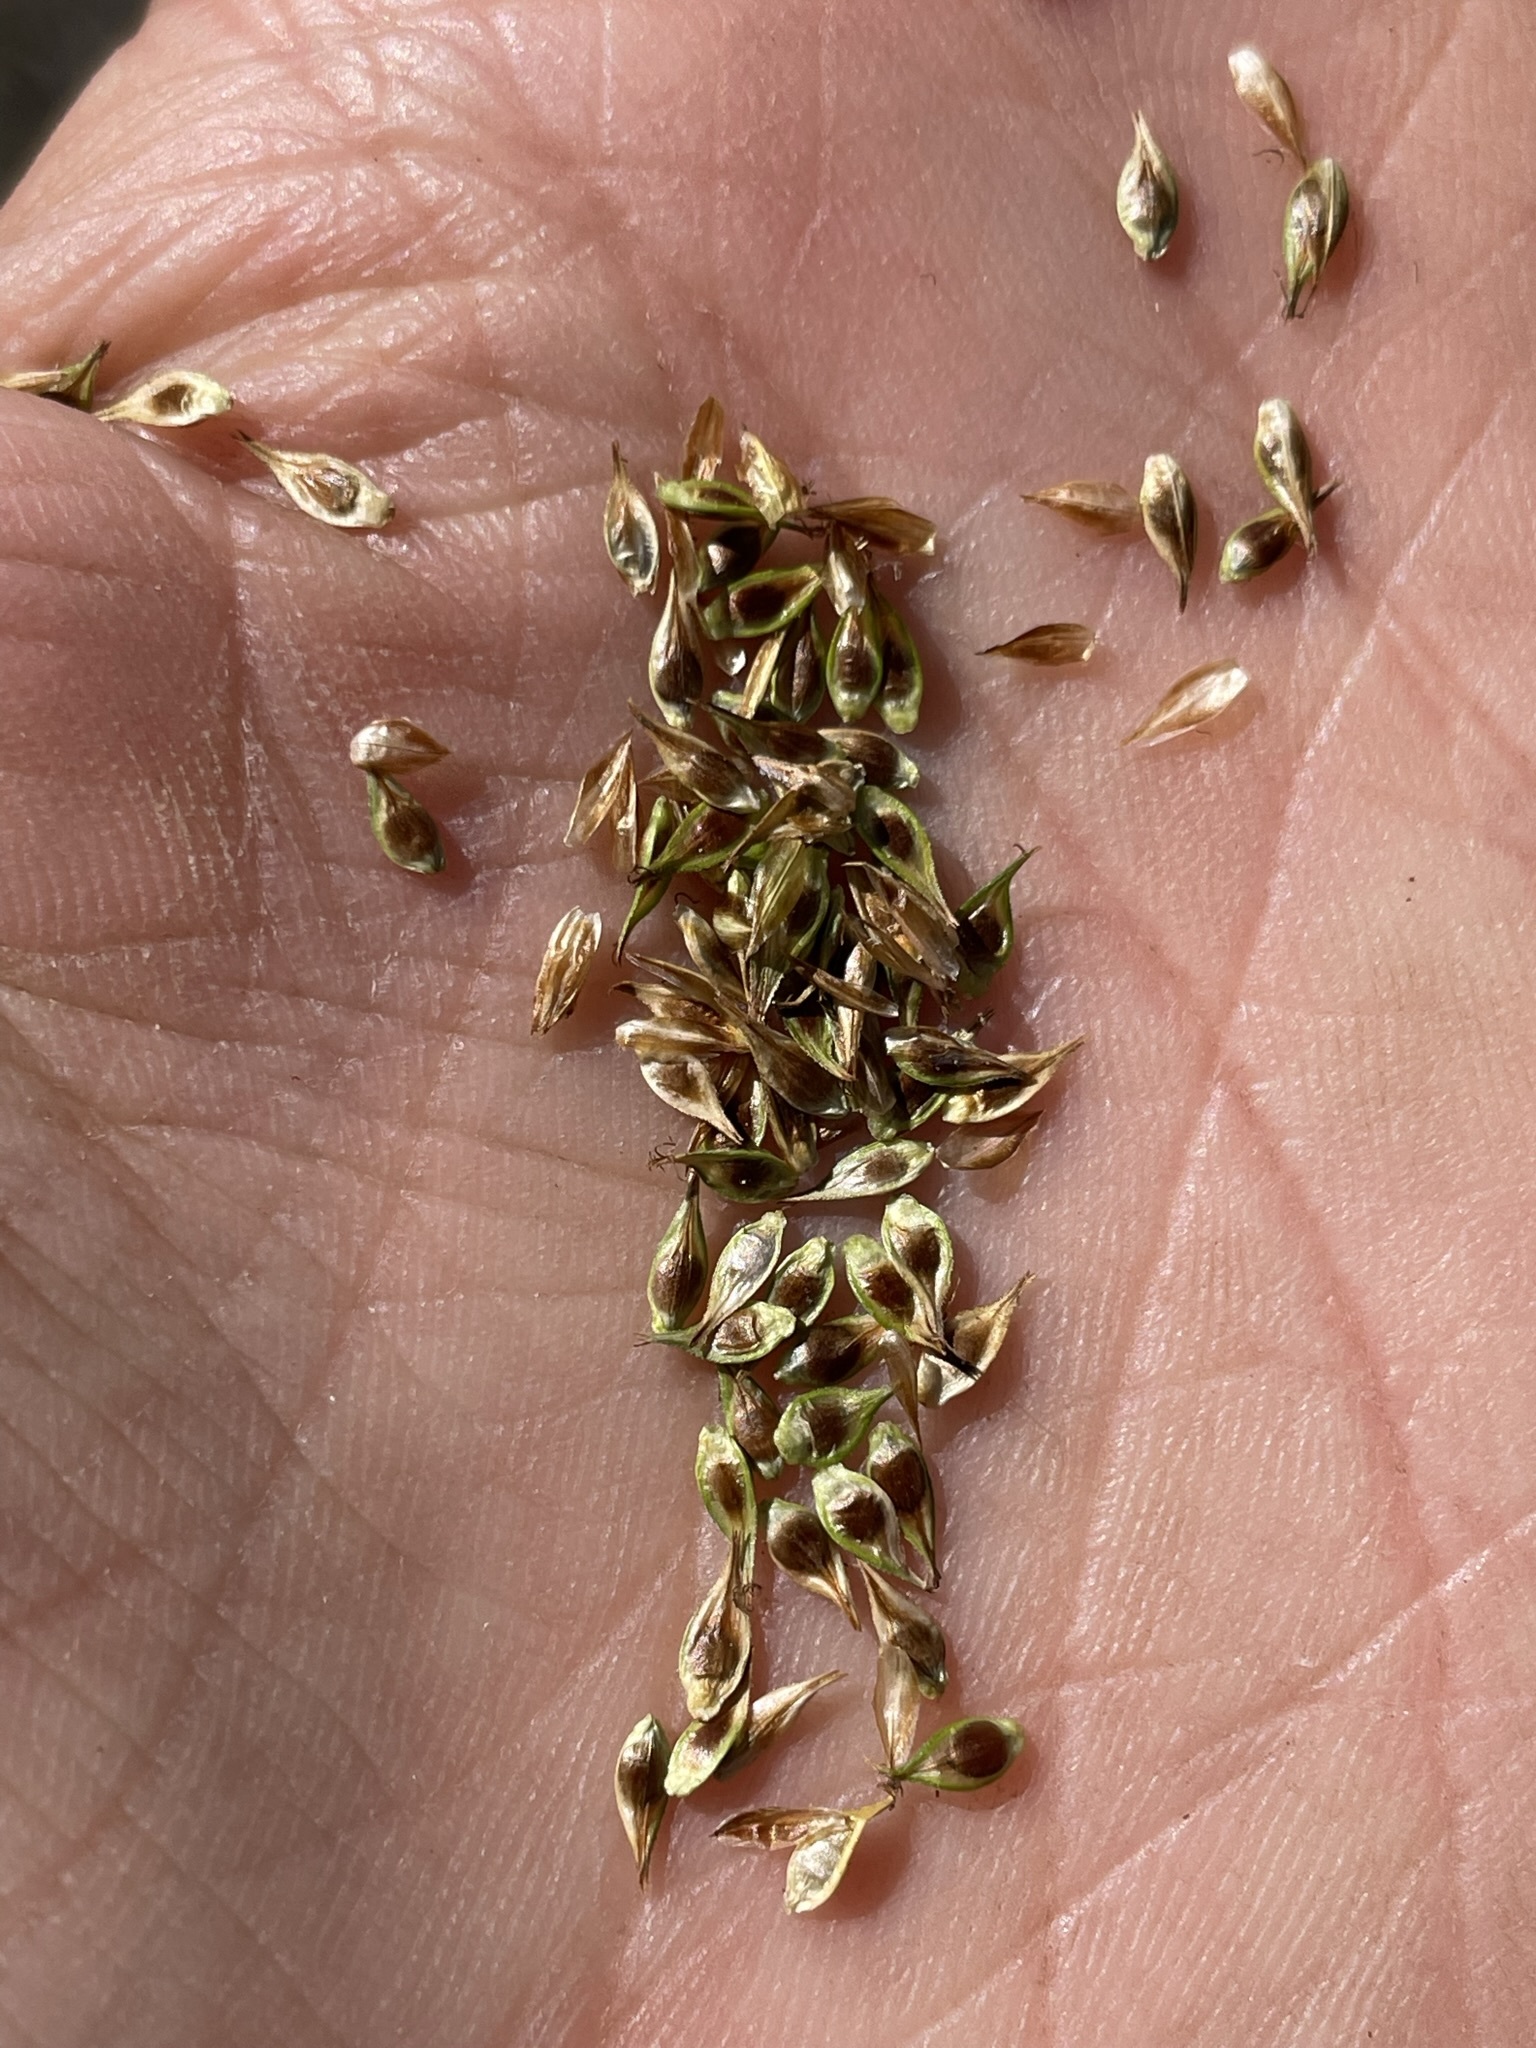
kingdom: Plantae
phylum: Tracheophyta
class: Liliopsida
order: Poales
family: Cyperaceae
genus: Carex
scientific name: Carex hoodii
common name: Hood's sedge
